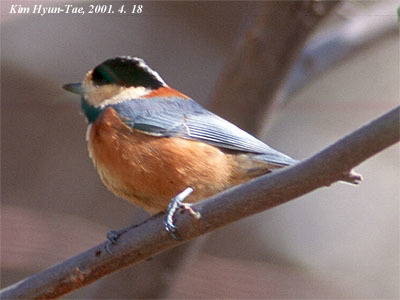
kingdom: Animalia
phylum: Chordata
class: Aves
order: Passeriformes
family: Paridae
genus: Poecile
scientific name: Poecile varius
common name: Varied tit
